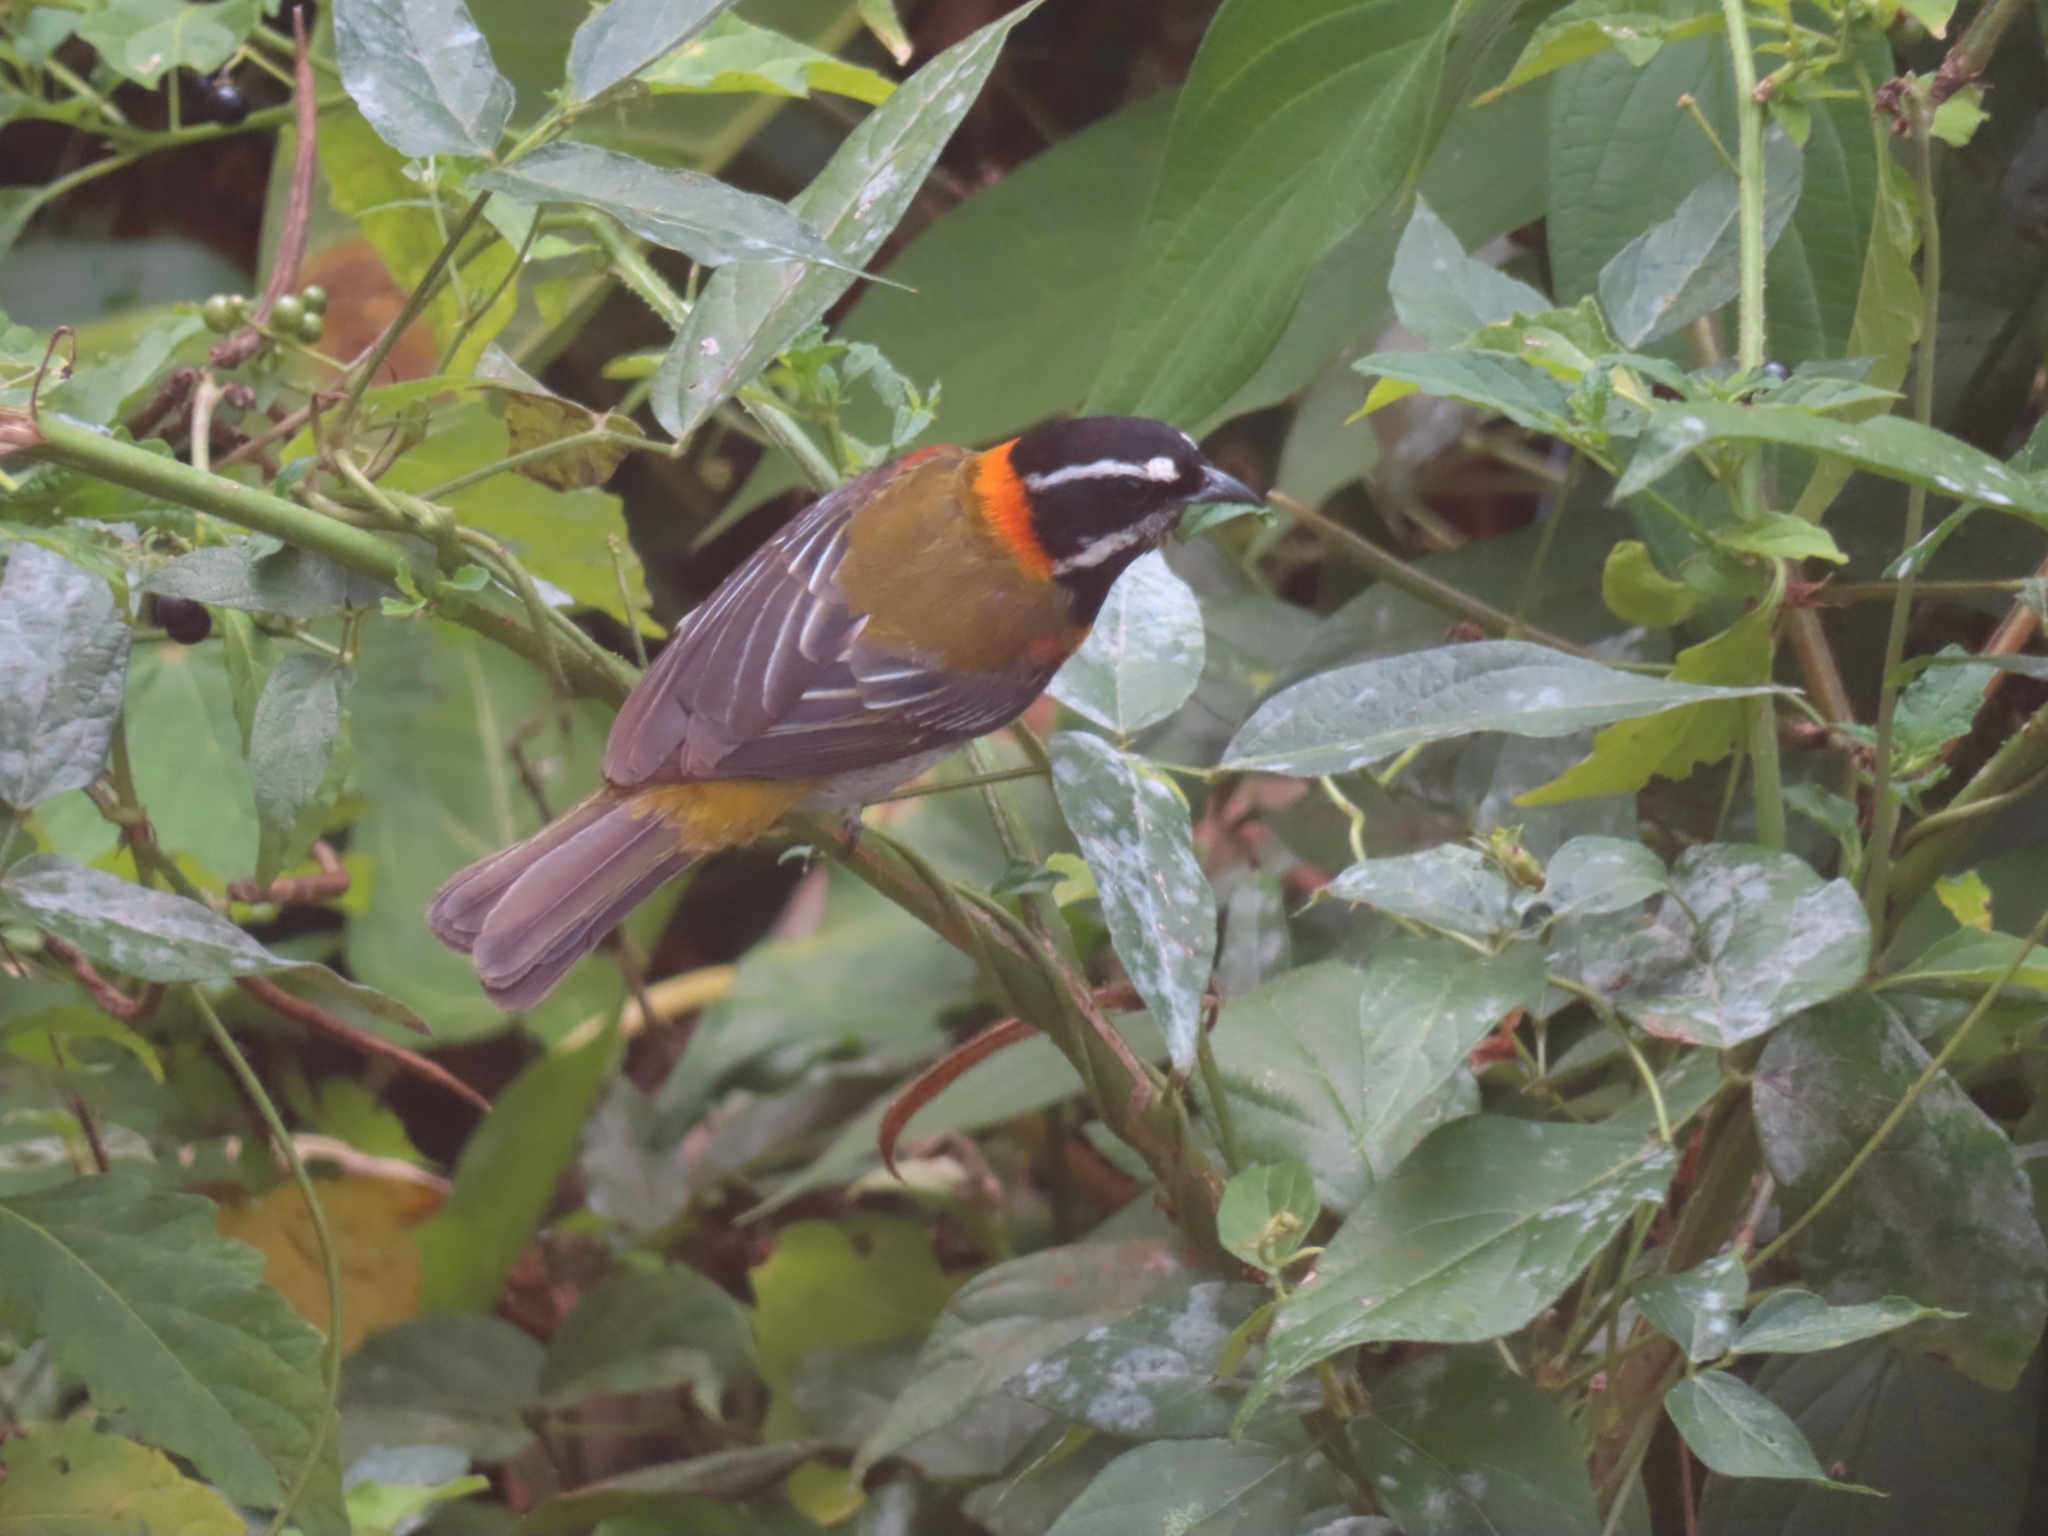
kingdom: Animalia
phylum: Chordata
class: Aves
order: Passeriformes
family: Spindalidae
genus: Spindalis
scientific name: Spindalis portoricensis
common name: Puerto rican spindalis
